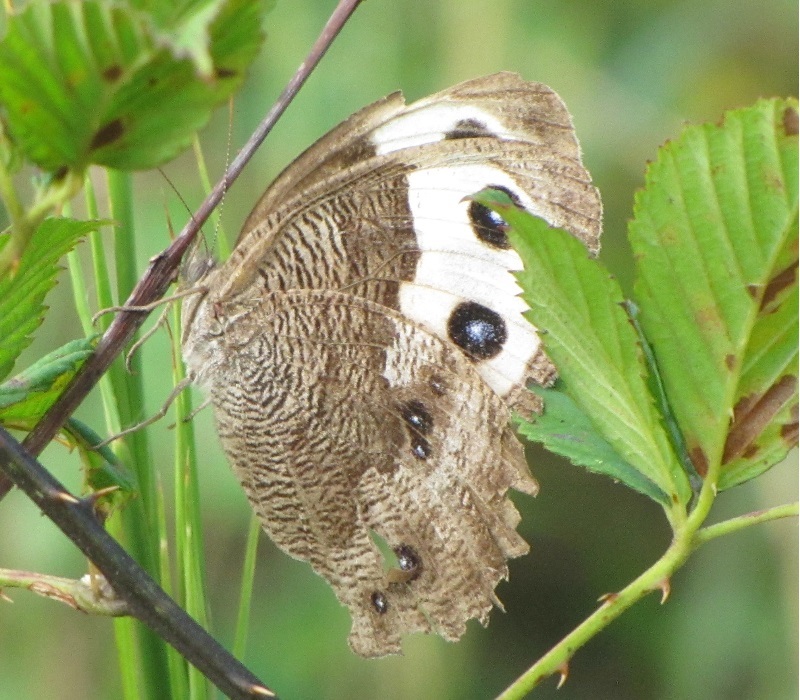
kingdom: Animalia
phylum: Arthropoda
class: Insecta
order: Lepidoptera
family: Nymphalidae
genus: Cercyonis
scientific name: Cercyonis pegala
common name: Common wood-nymph
